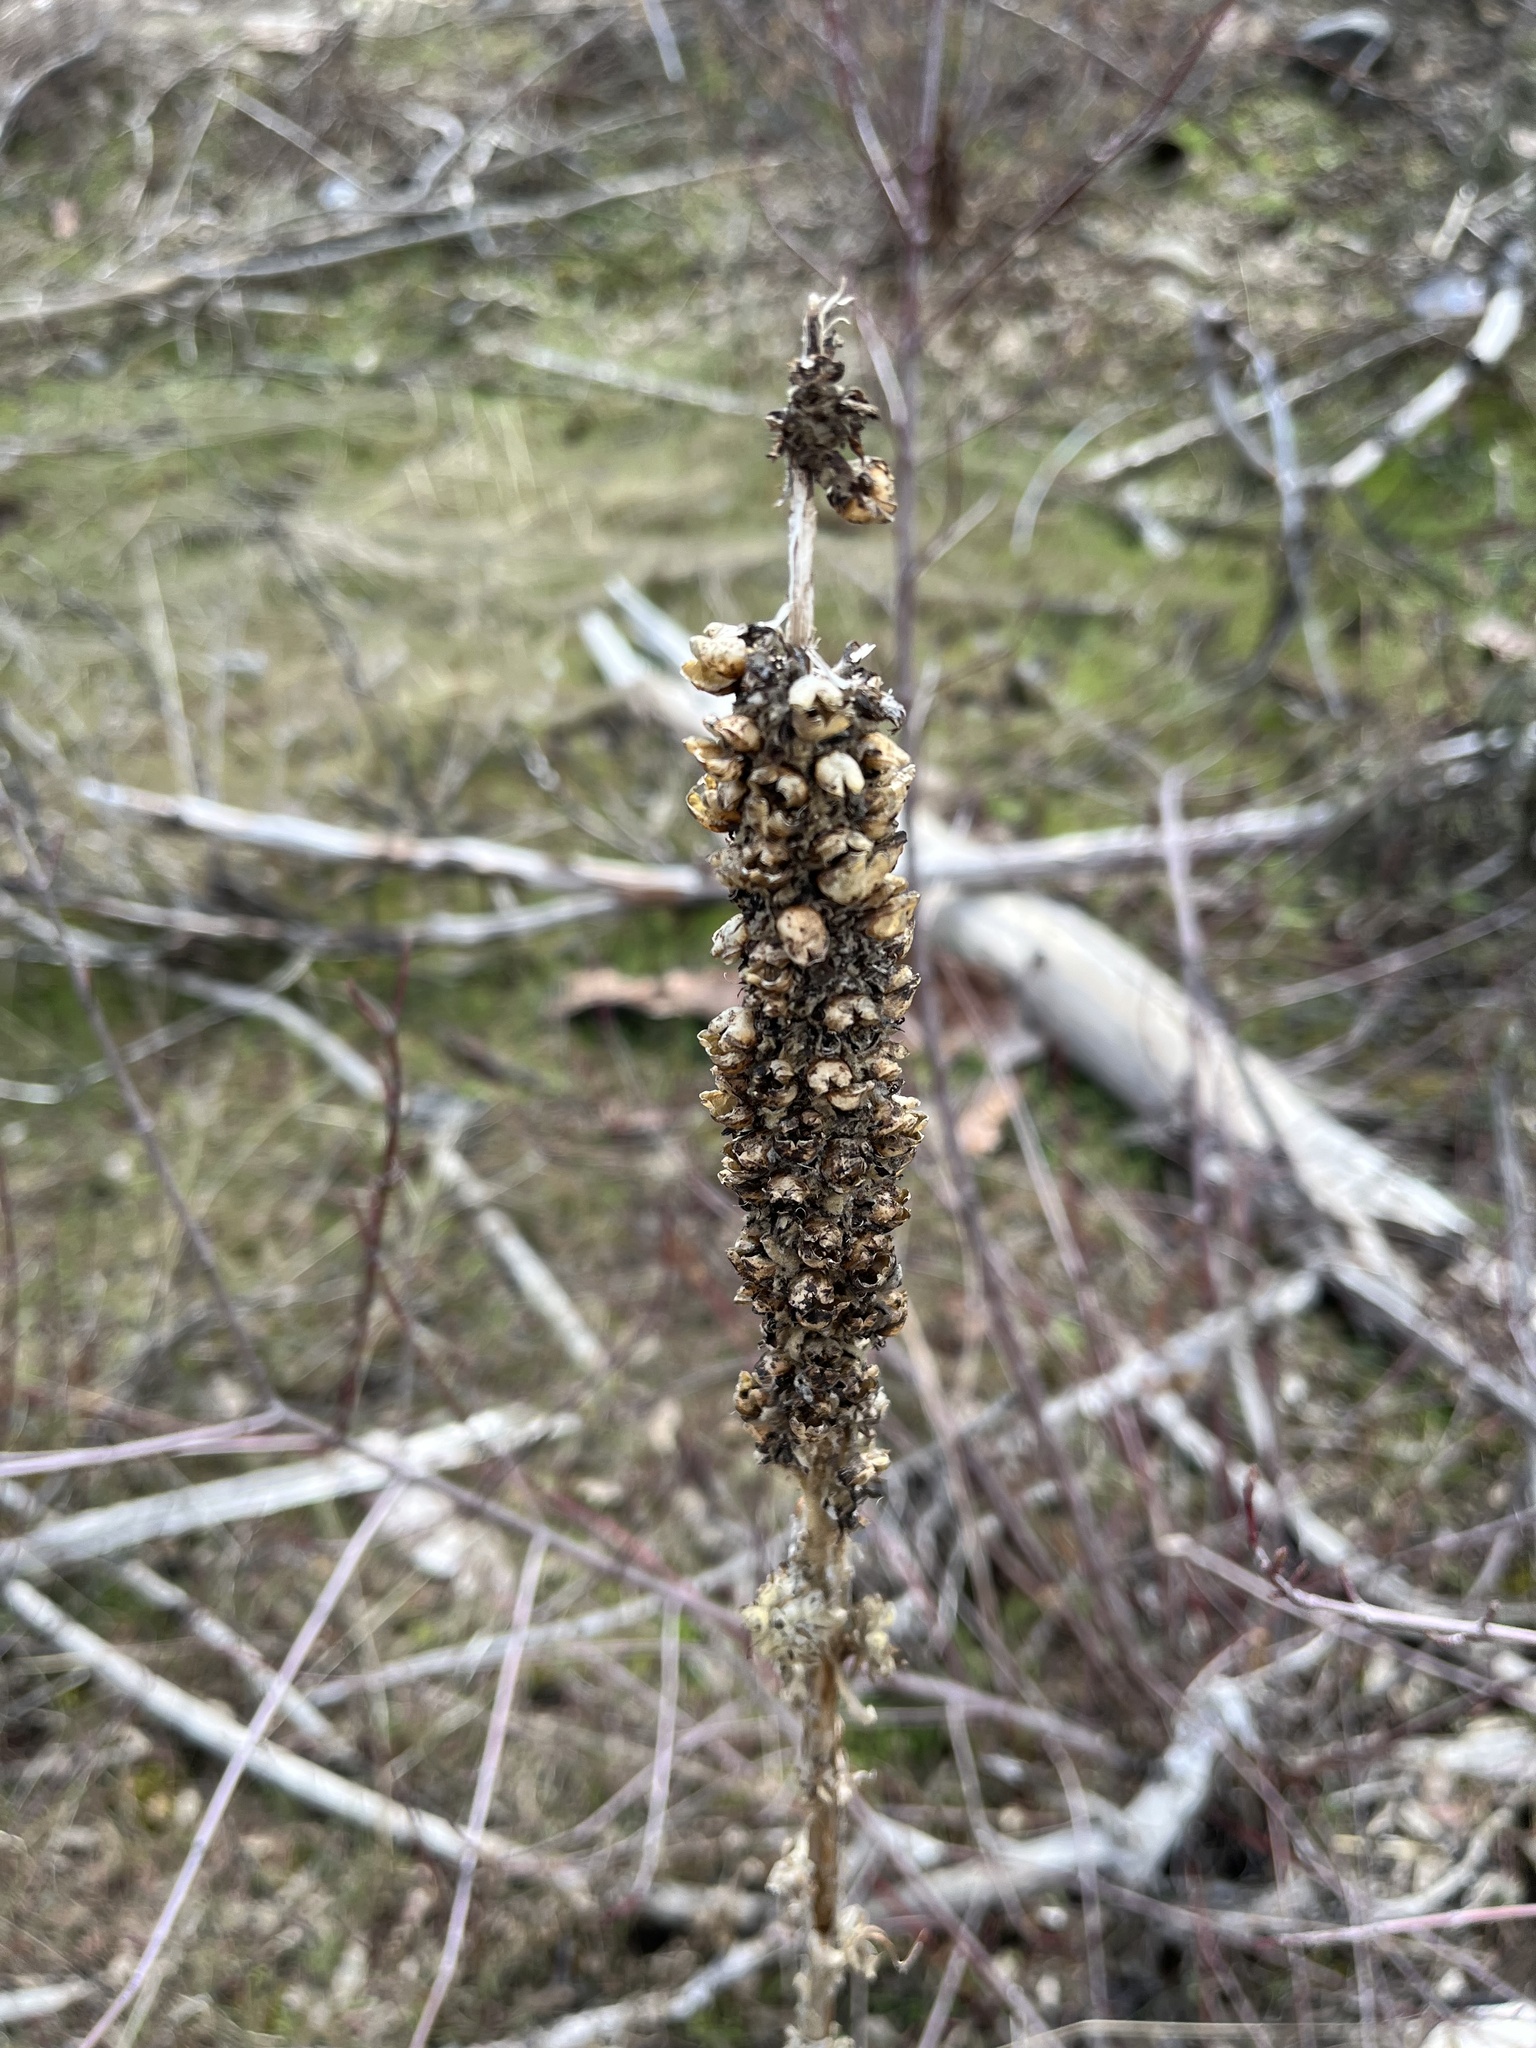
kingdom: Plantae
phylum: Tracheophyta
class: Magnoliopsida
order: Lamiales
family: Scrophulariaceae
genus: Verbascum
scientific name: Verbascum thapsus
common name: Common mullein
